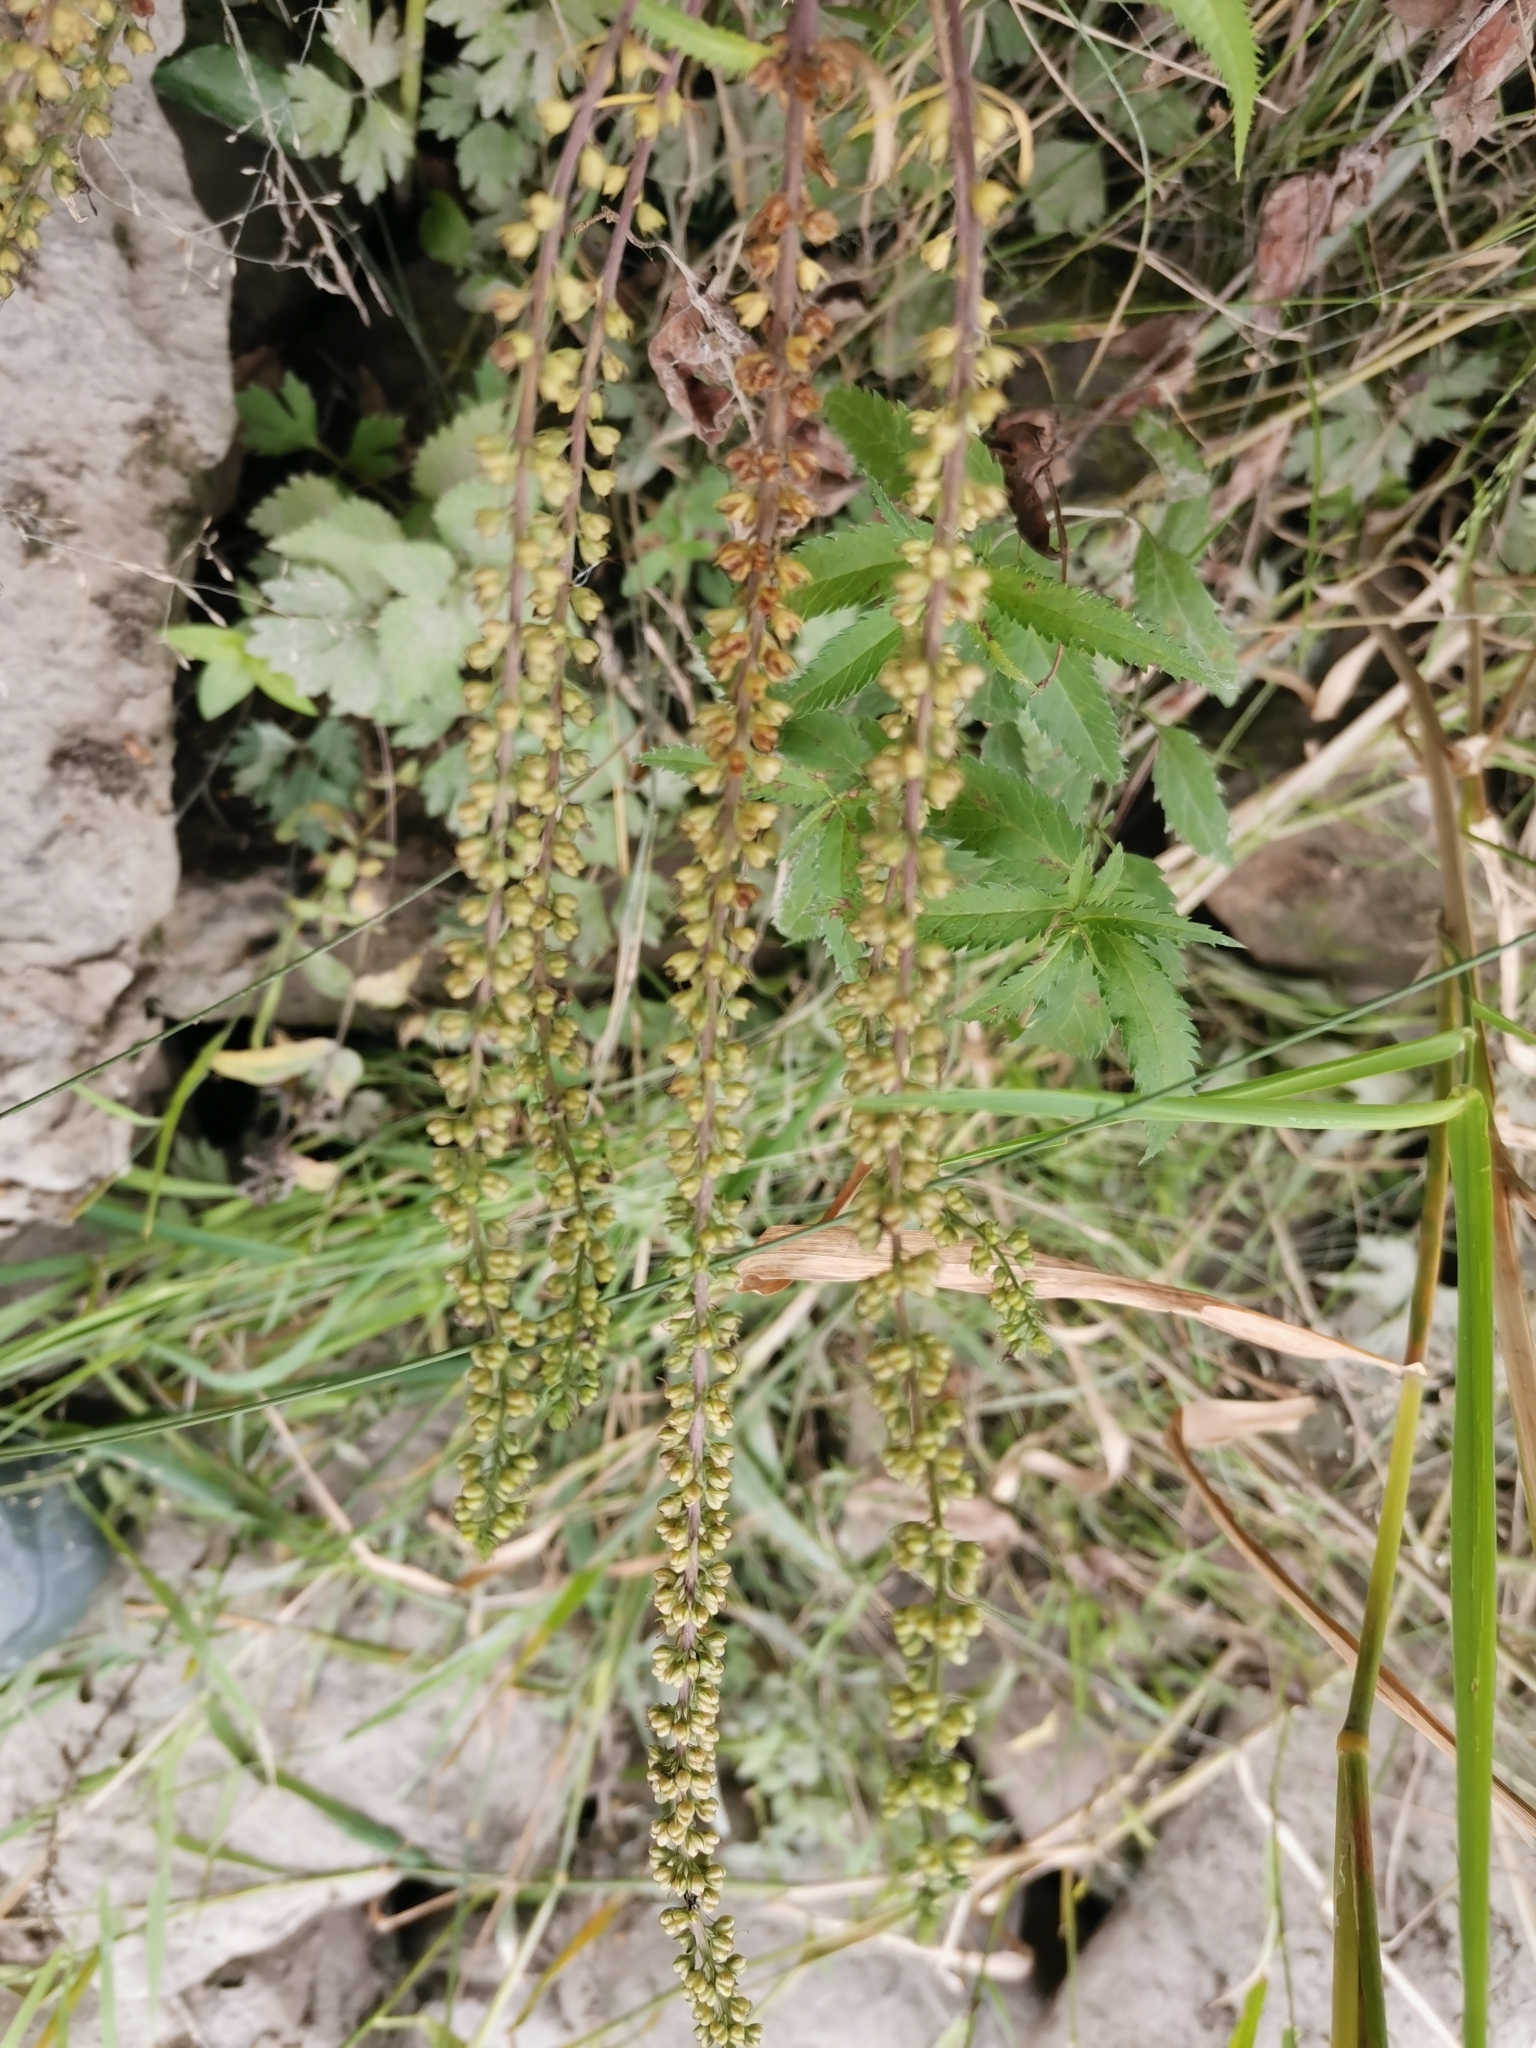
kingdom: Plantae
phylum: Tracheophyta
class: Magnoliopsida
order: Lamiales
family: Plantaginaceae
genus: Veronica
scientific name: Veronica longifolia
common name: Garden speedwell
